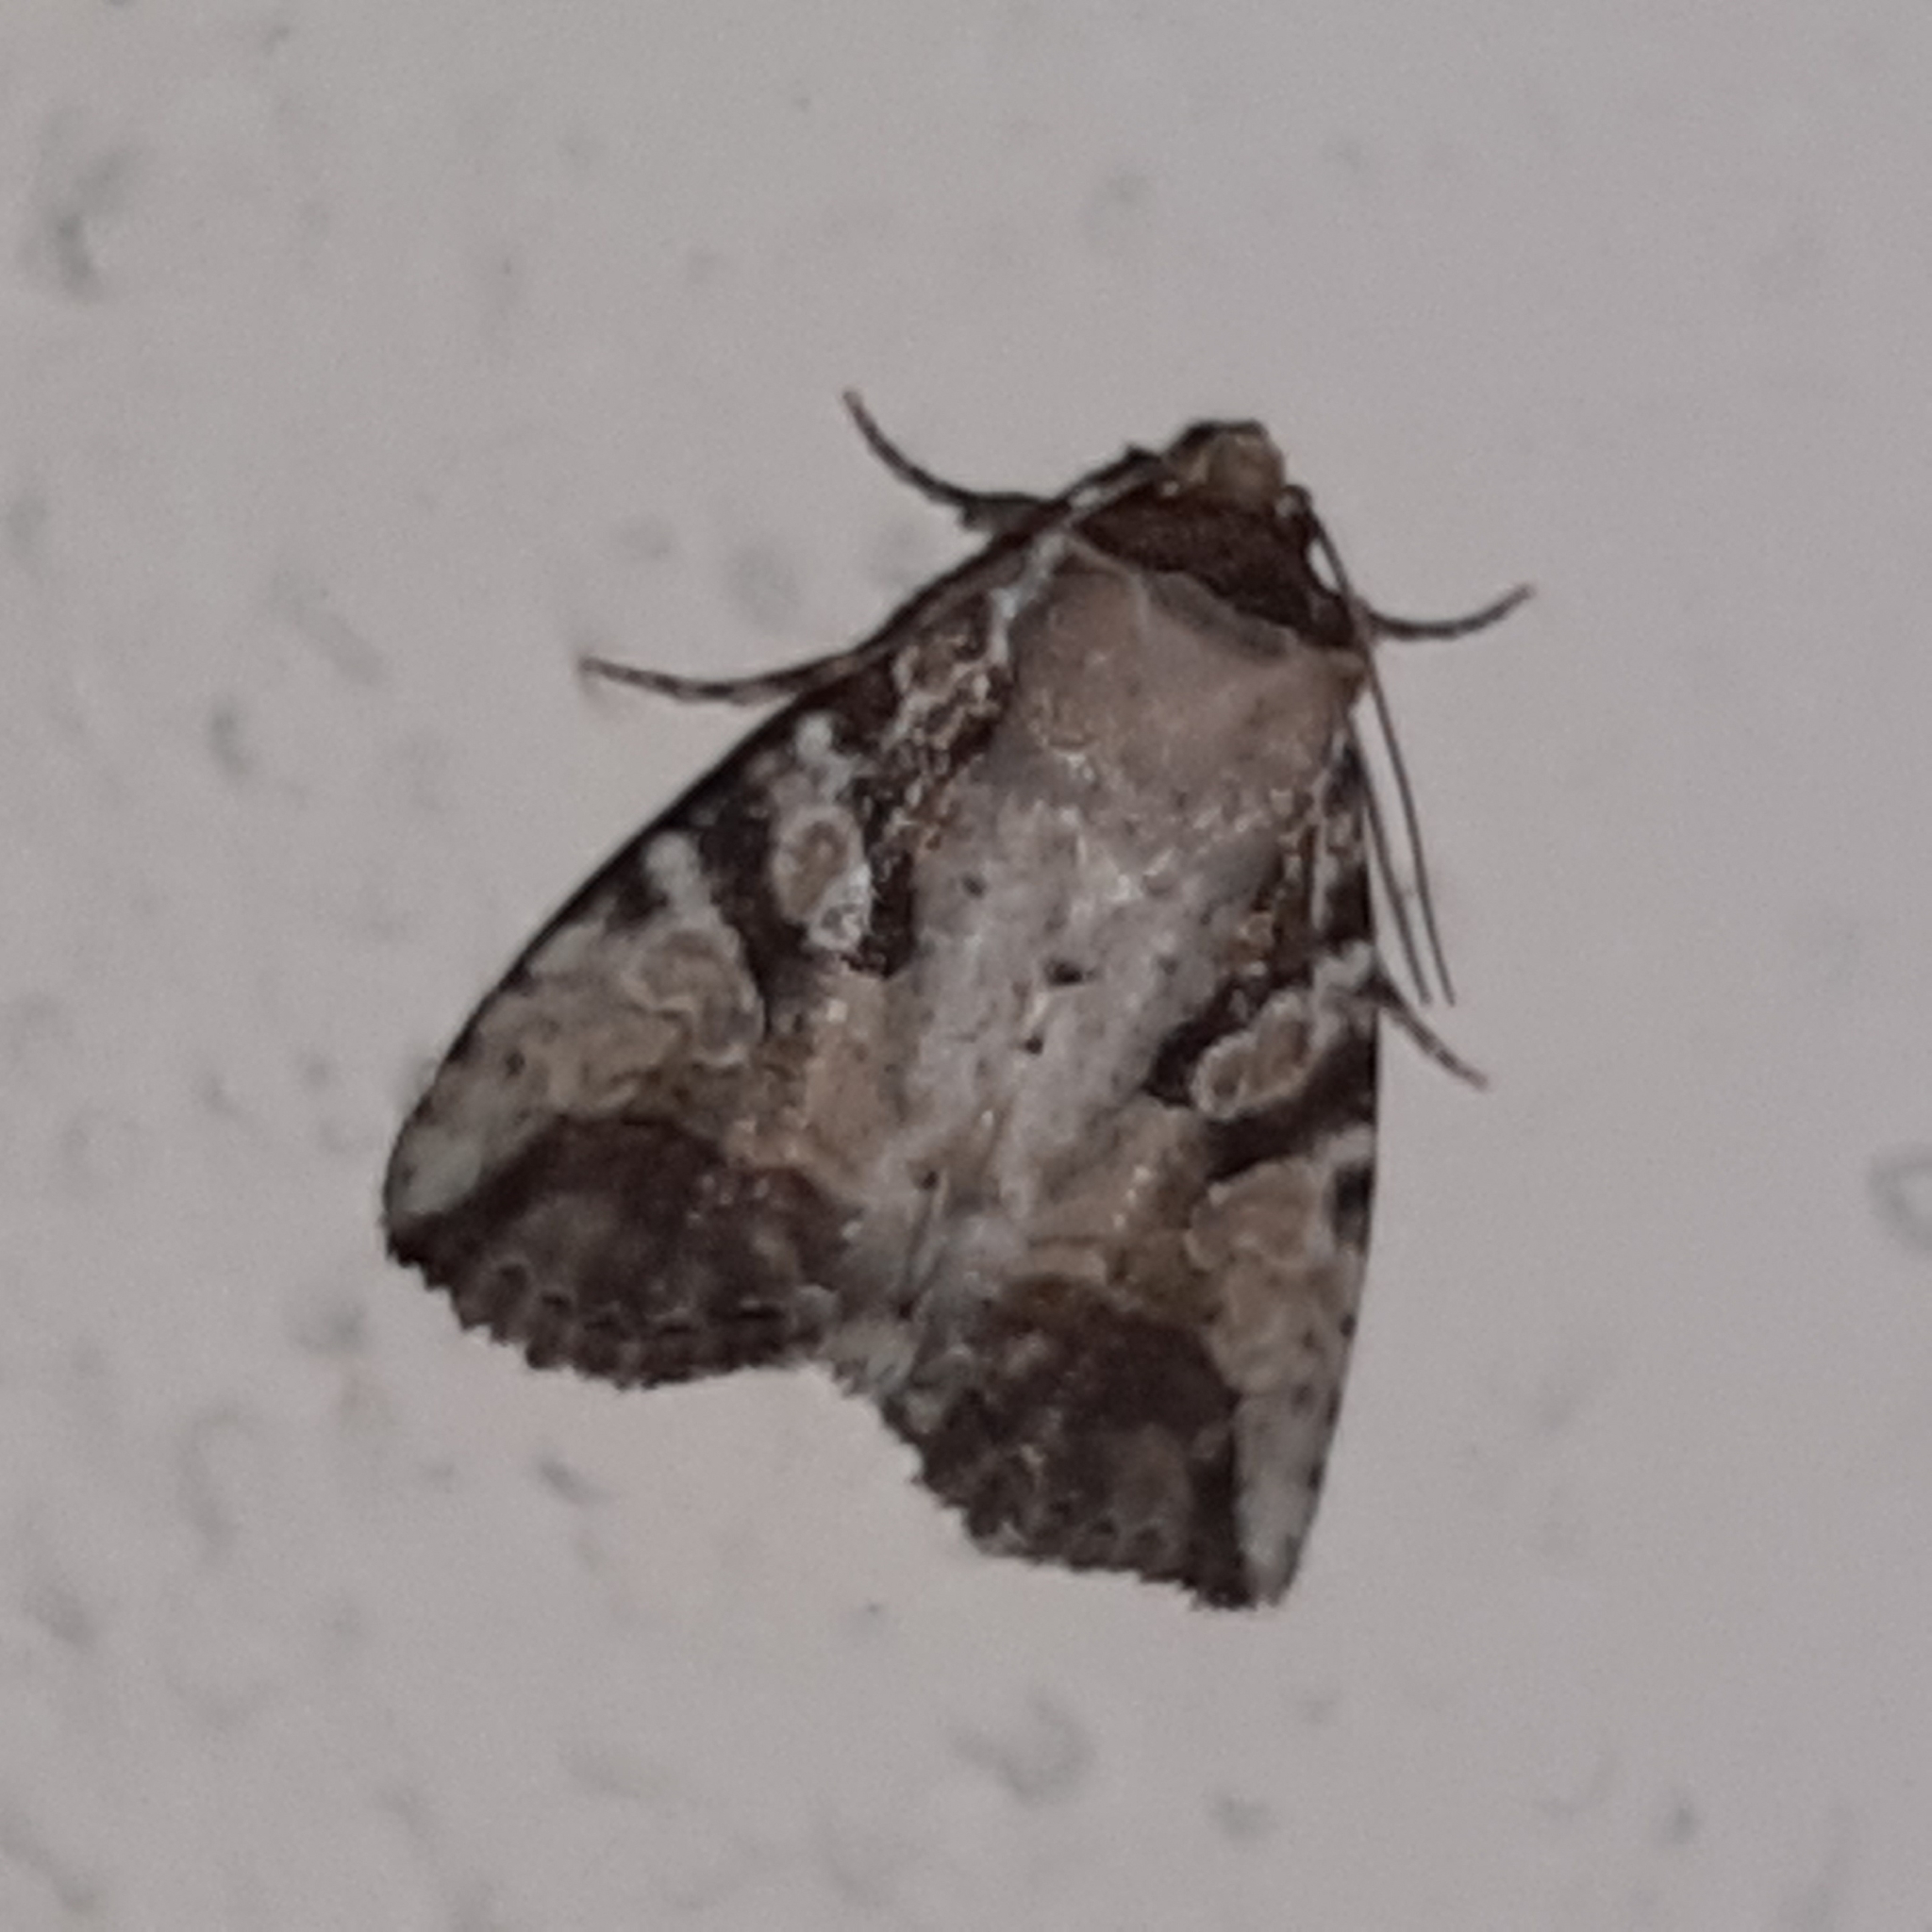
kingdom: Animalia
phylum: Arthropoda
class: Insecta
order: Lepidoptera
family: Noctuidae
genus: Condica
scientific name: Condica micrippia
